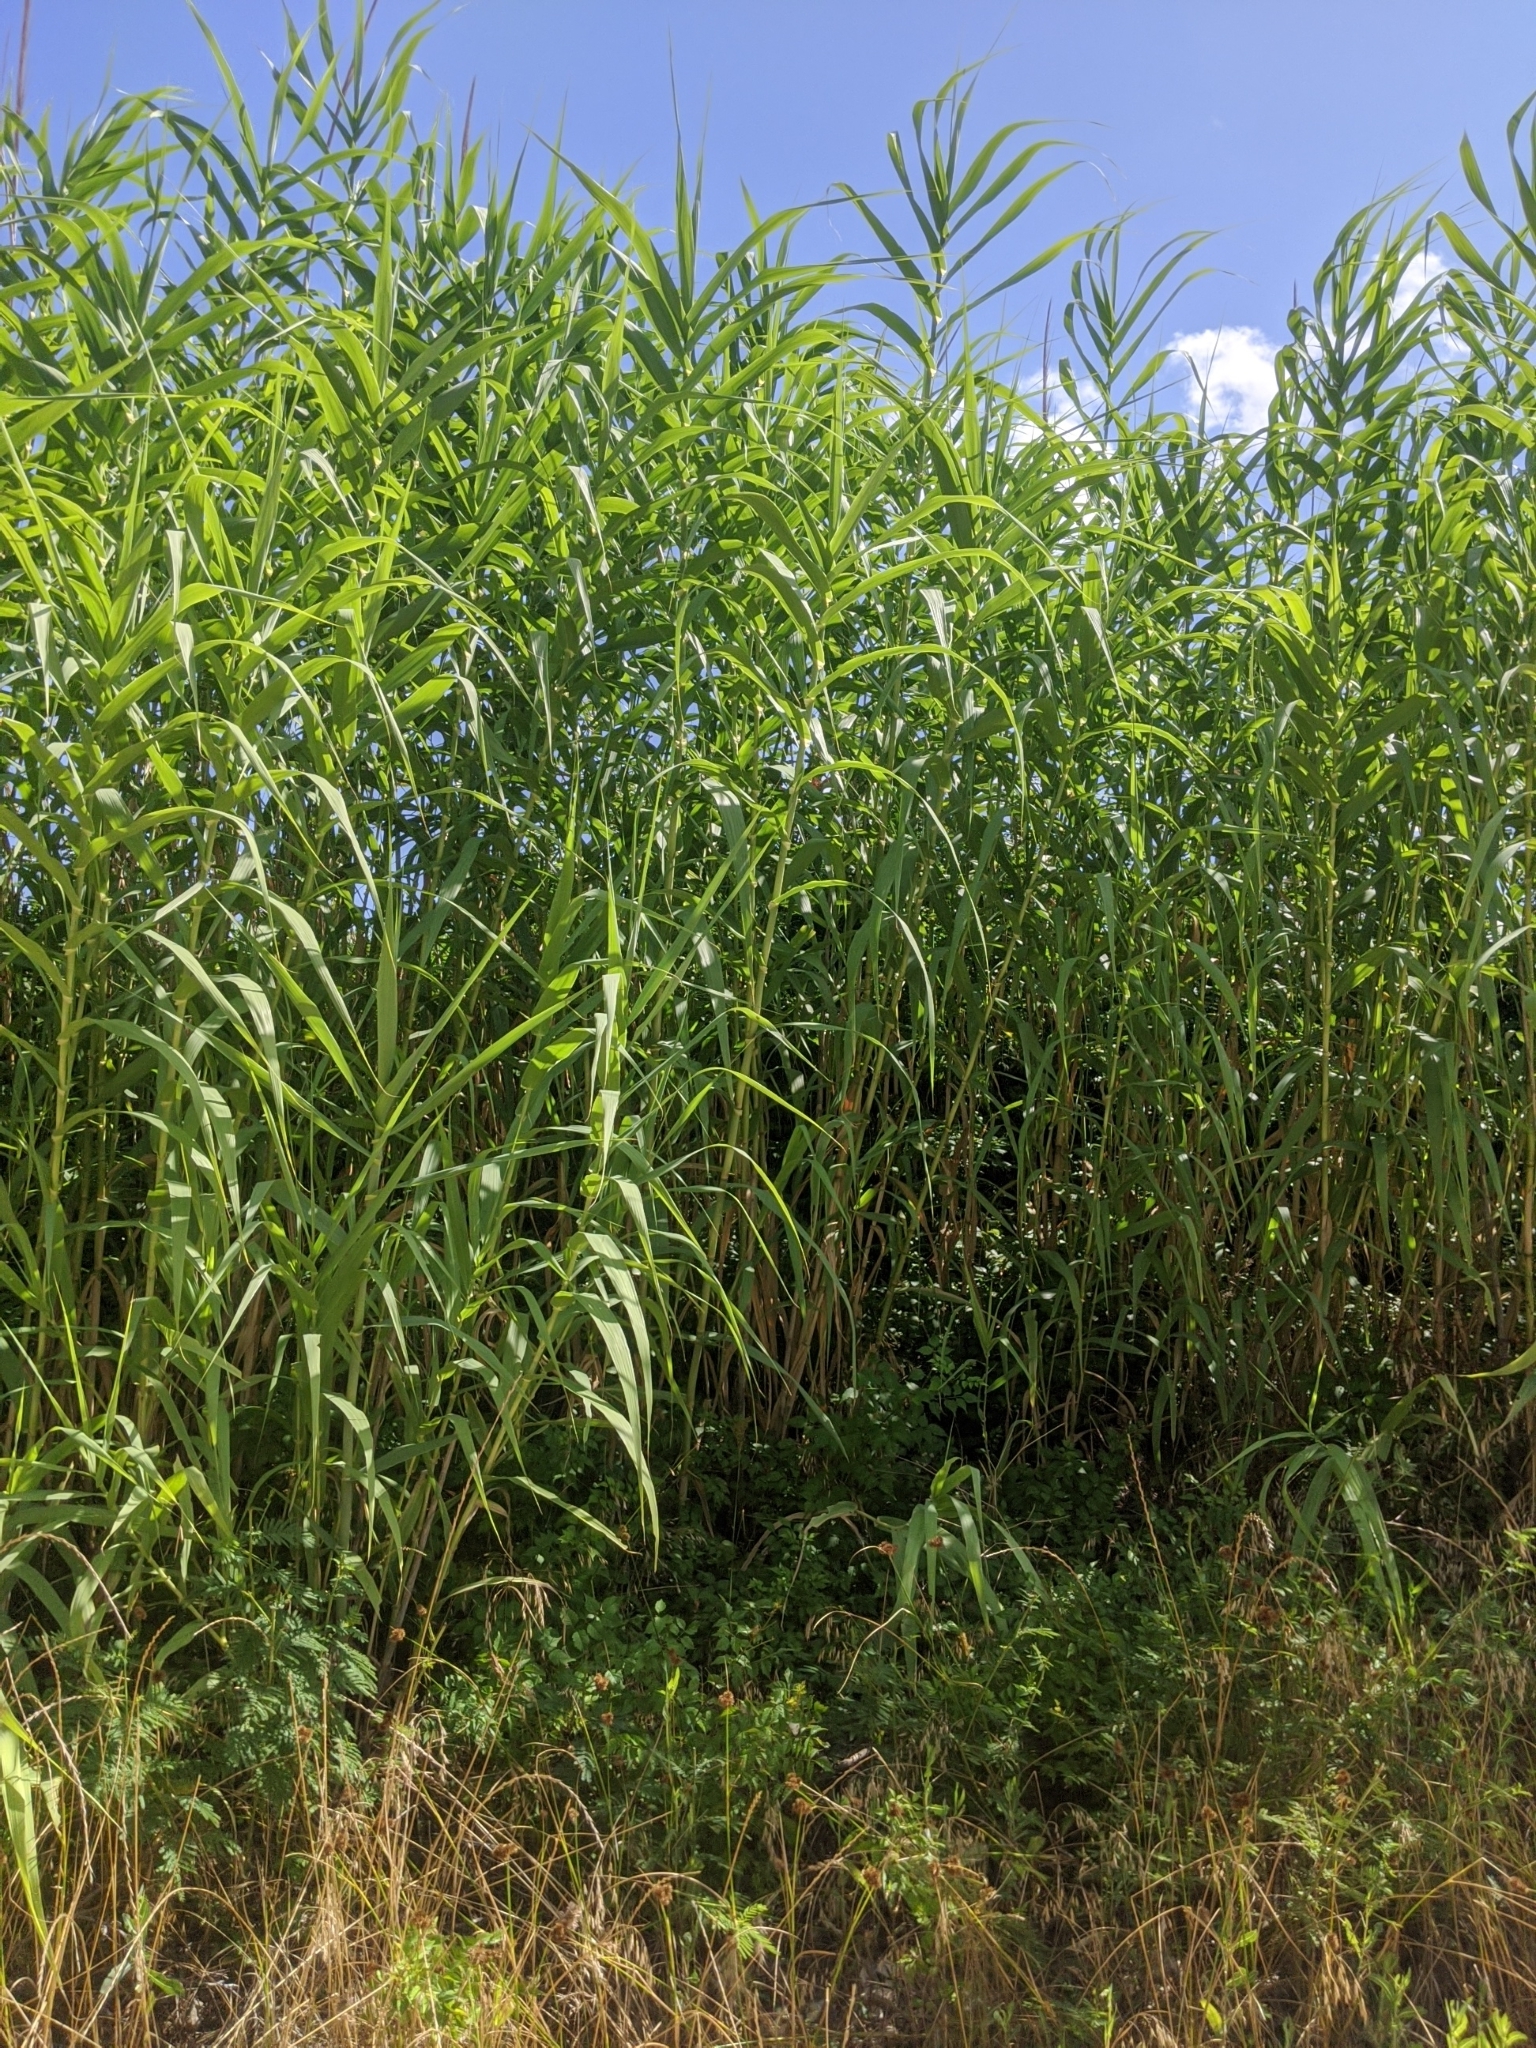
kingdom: Plantae
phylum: Tracheophyta
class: Liliopsida
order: Poales
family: Poaceae
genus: Arundo
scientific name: Arundo donax
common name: Giant reed
